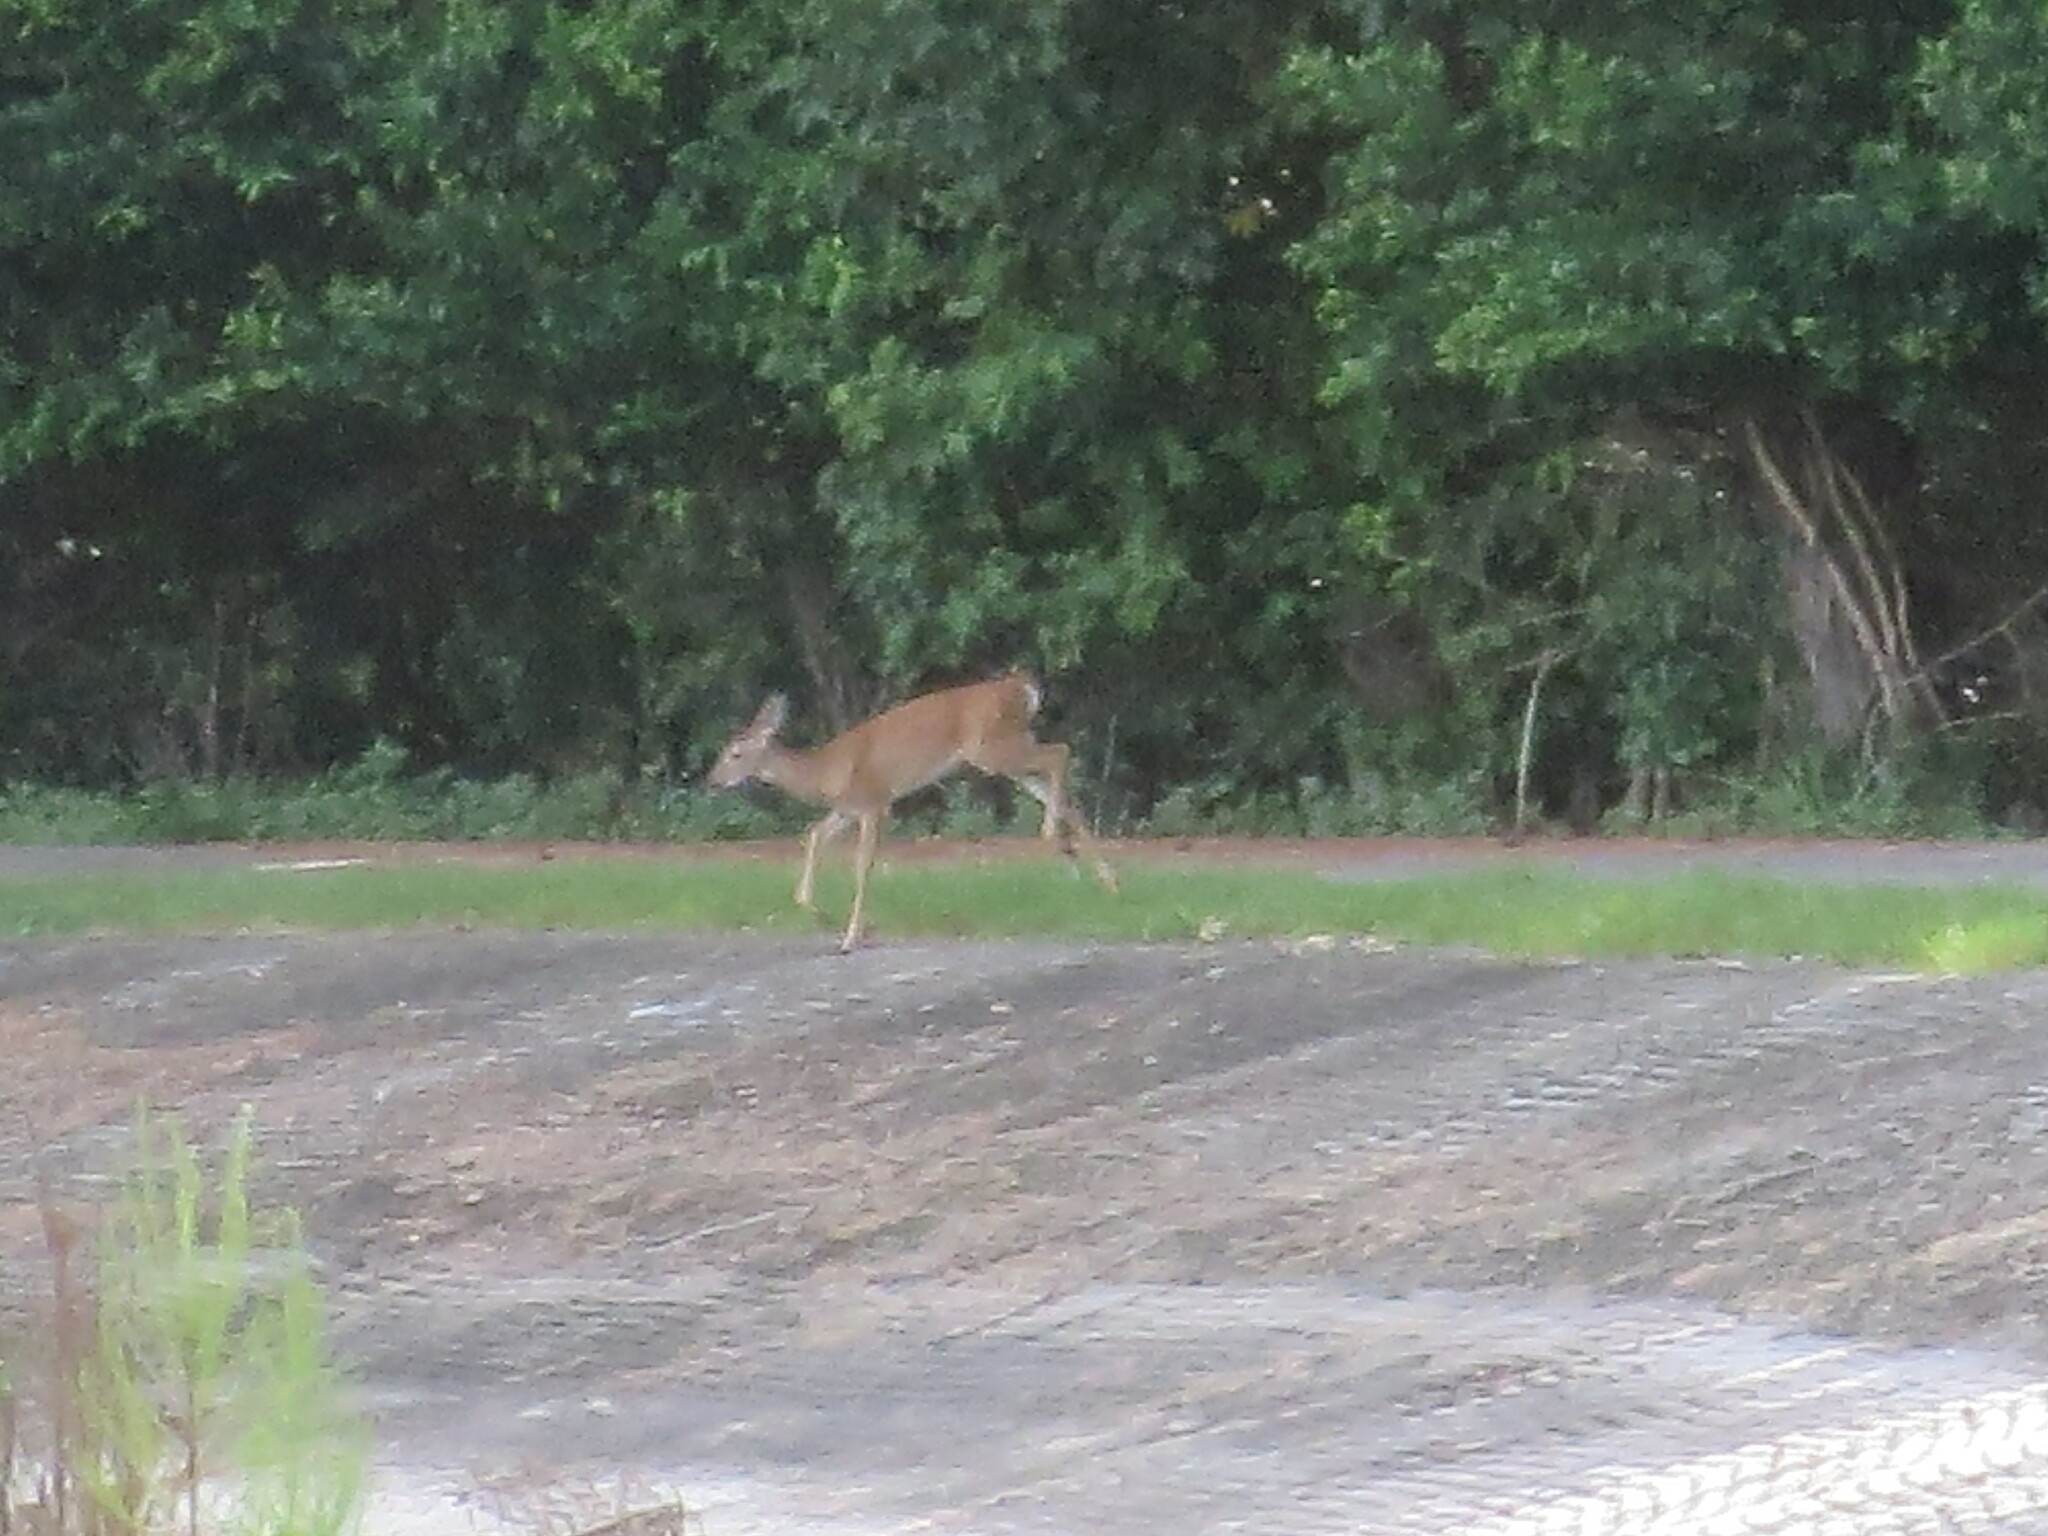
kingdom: Animalia
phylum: Chordata
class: Mammalia
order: Artiodactyla
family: Cervidae
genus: Odocoileus
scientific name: Odocoileus virginianus
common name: White-tailed deer
